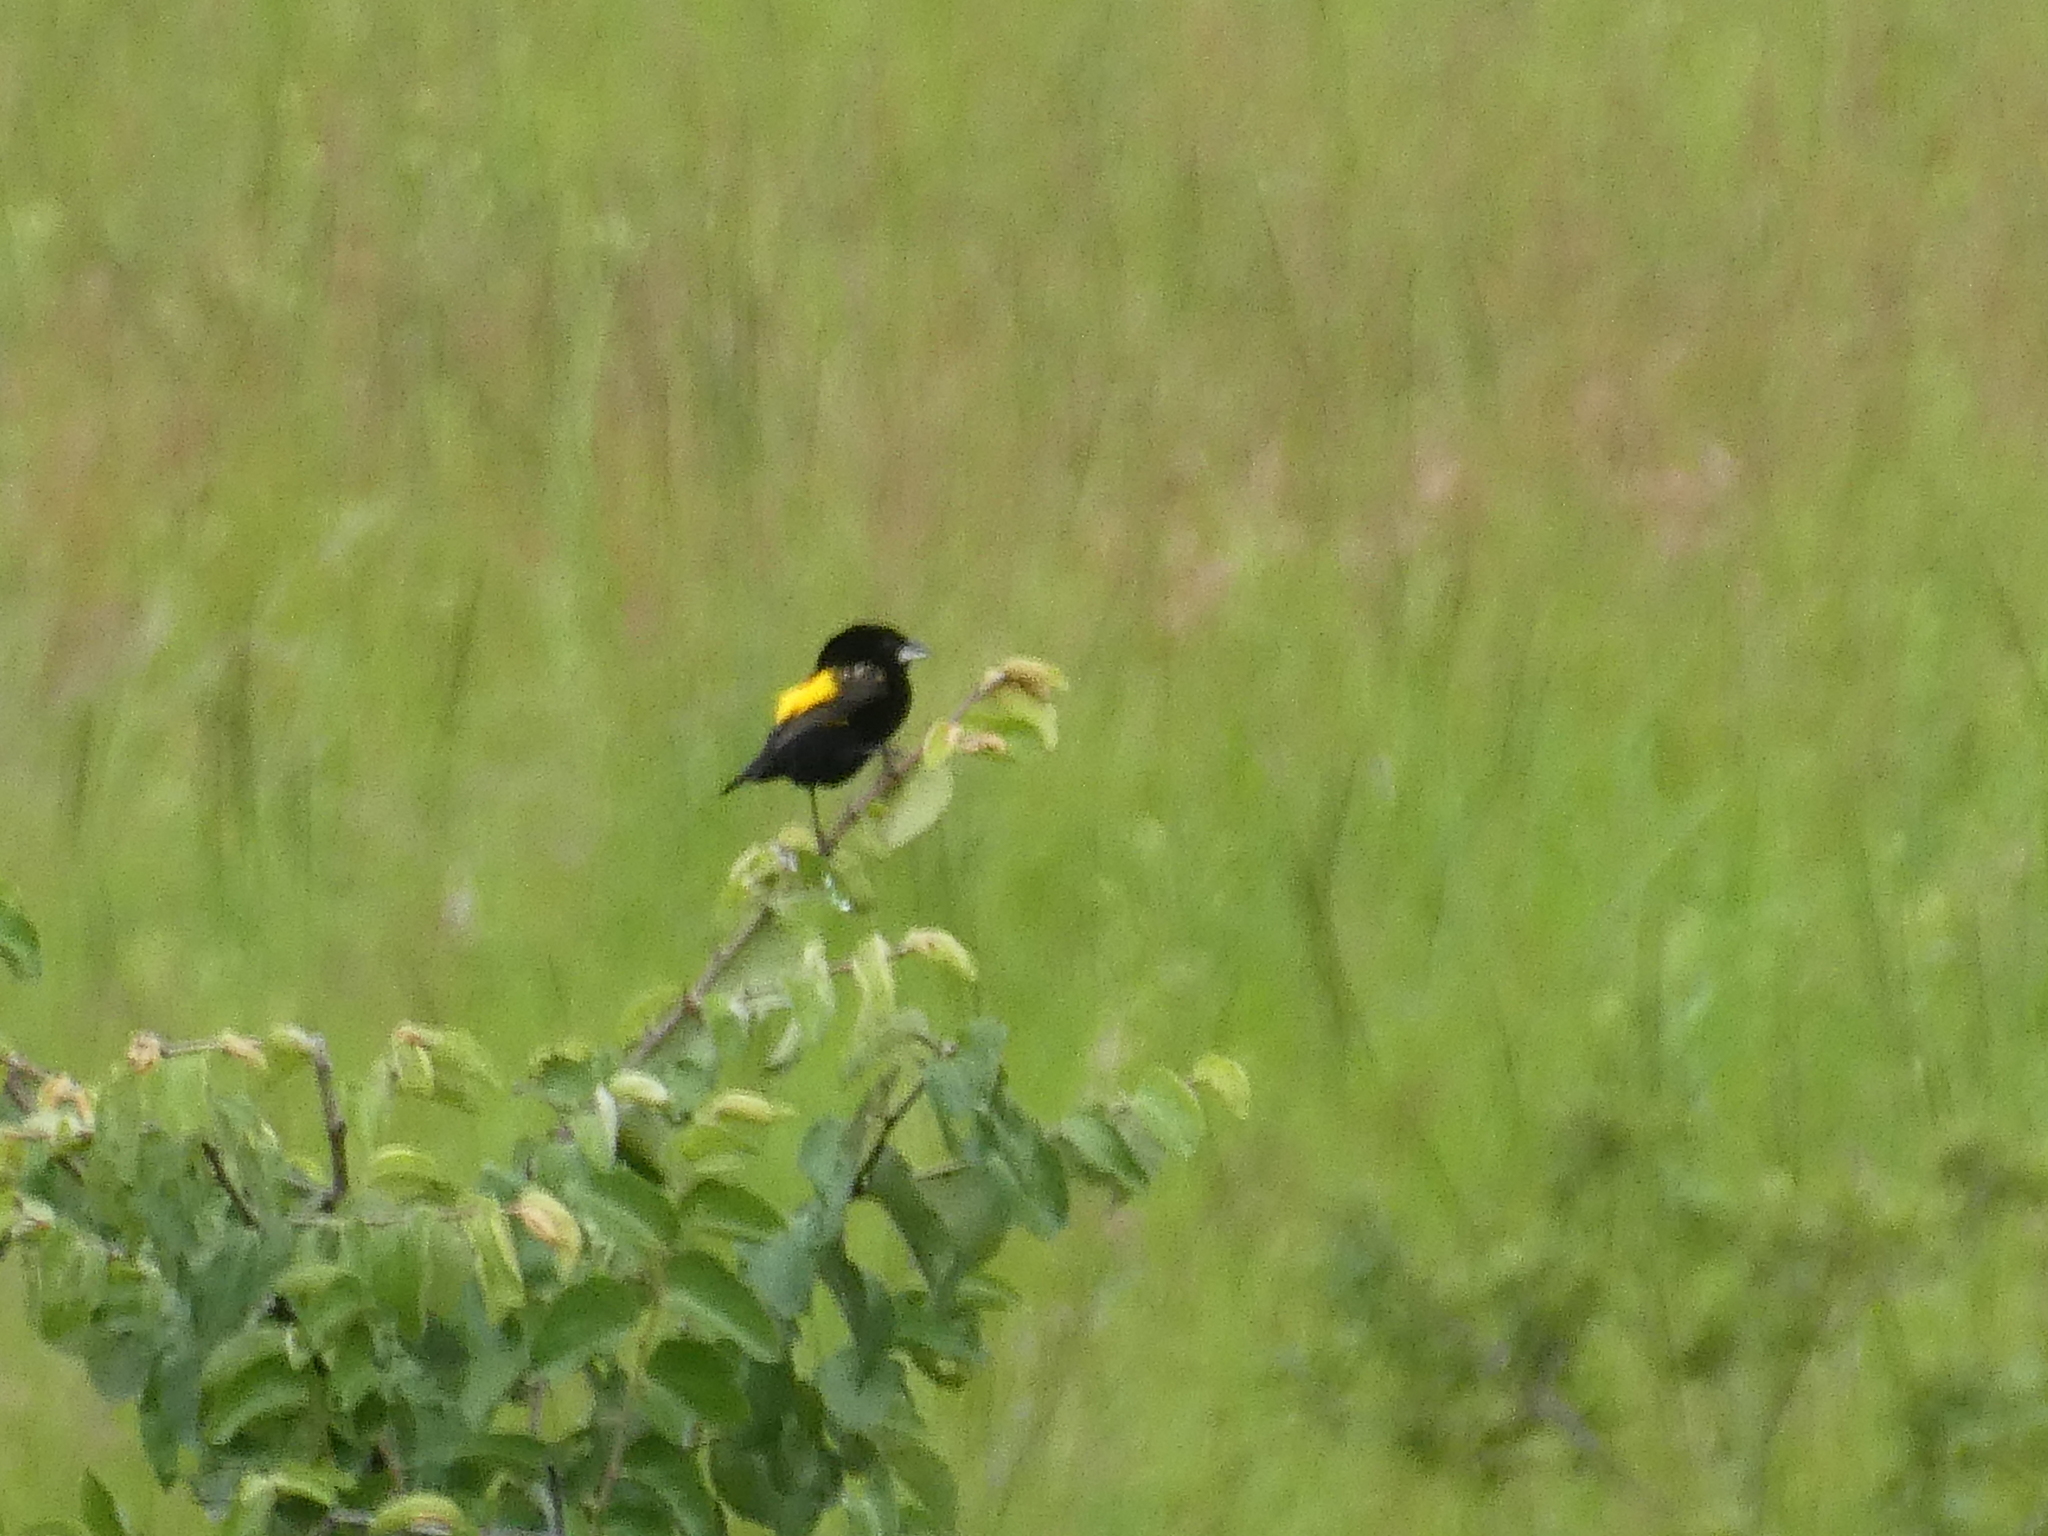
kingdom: Animalia
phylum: Chordata
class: Aves
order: Passeriformes
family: Ploceidae
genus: Euplectes
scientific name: Euplectes capensis
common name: Yellow bishop
